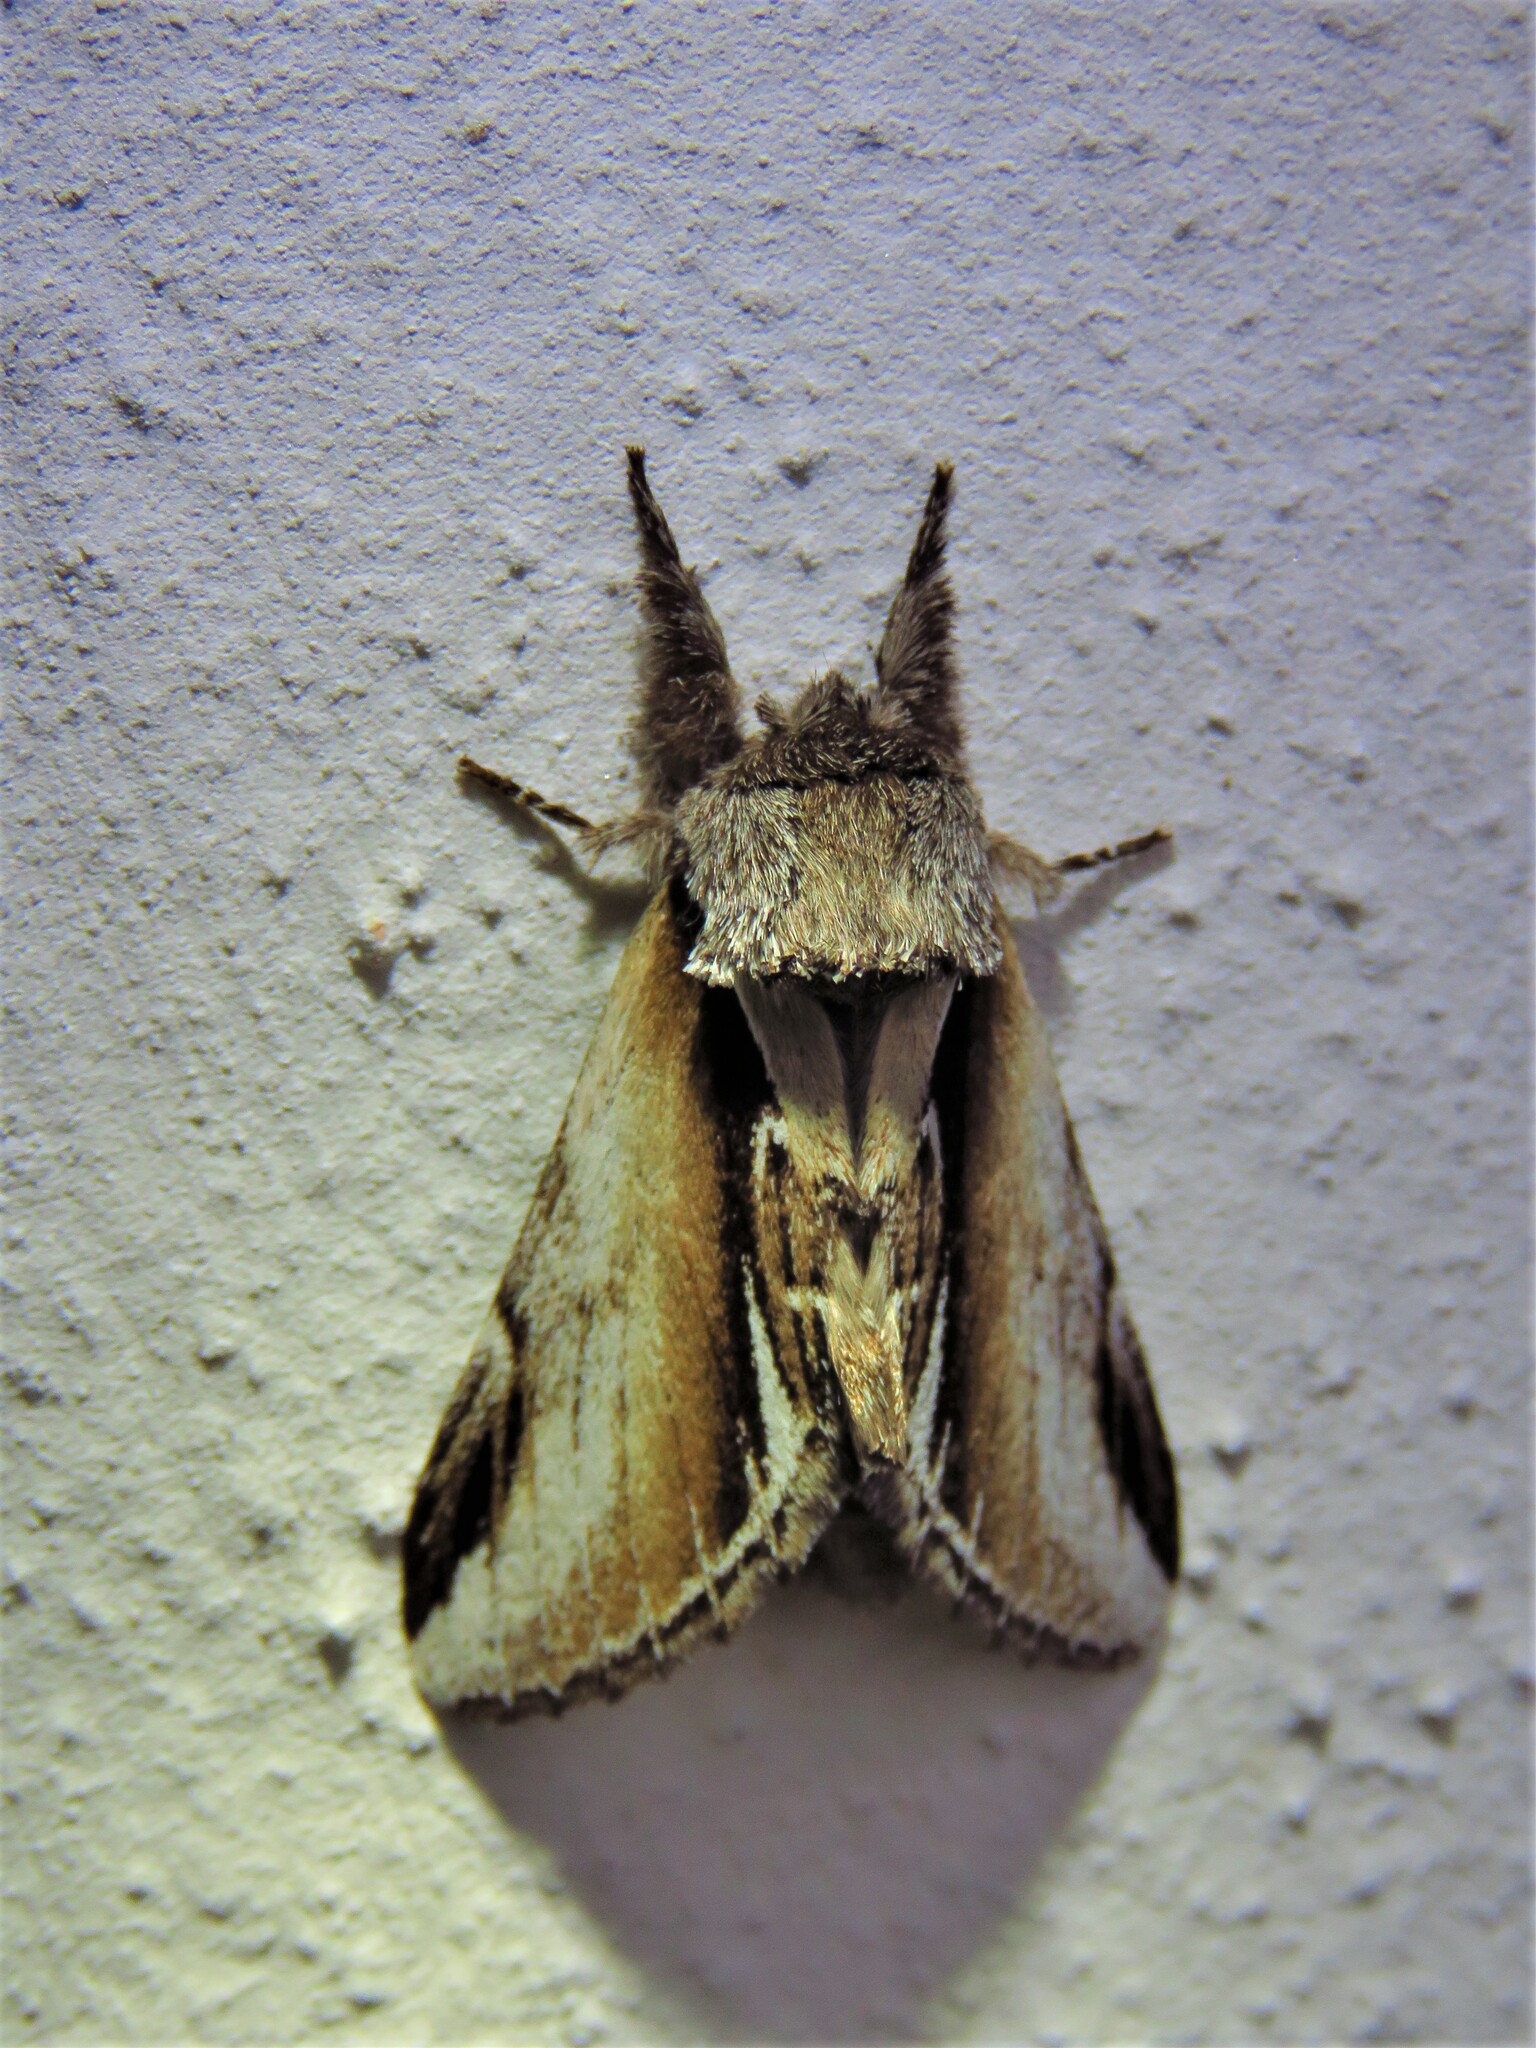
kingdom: Animalia
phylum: Arthropoda
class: Insecta
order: Lepidoptera
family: Notodontidae
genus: Pheosia
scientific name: Pheosia gnoma
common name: Lesser swallow prominent
